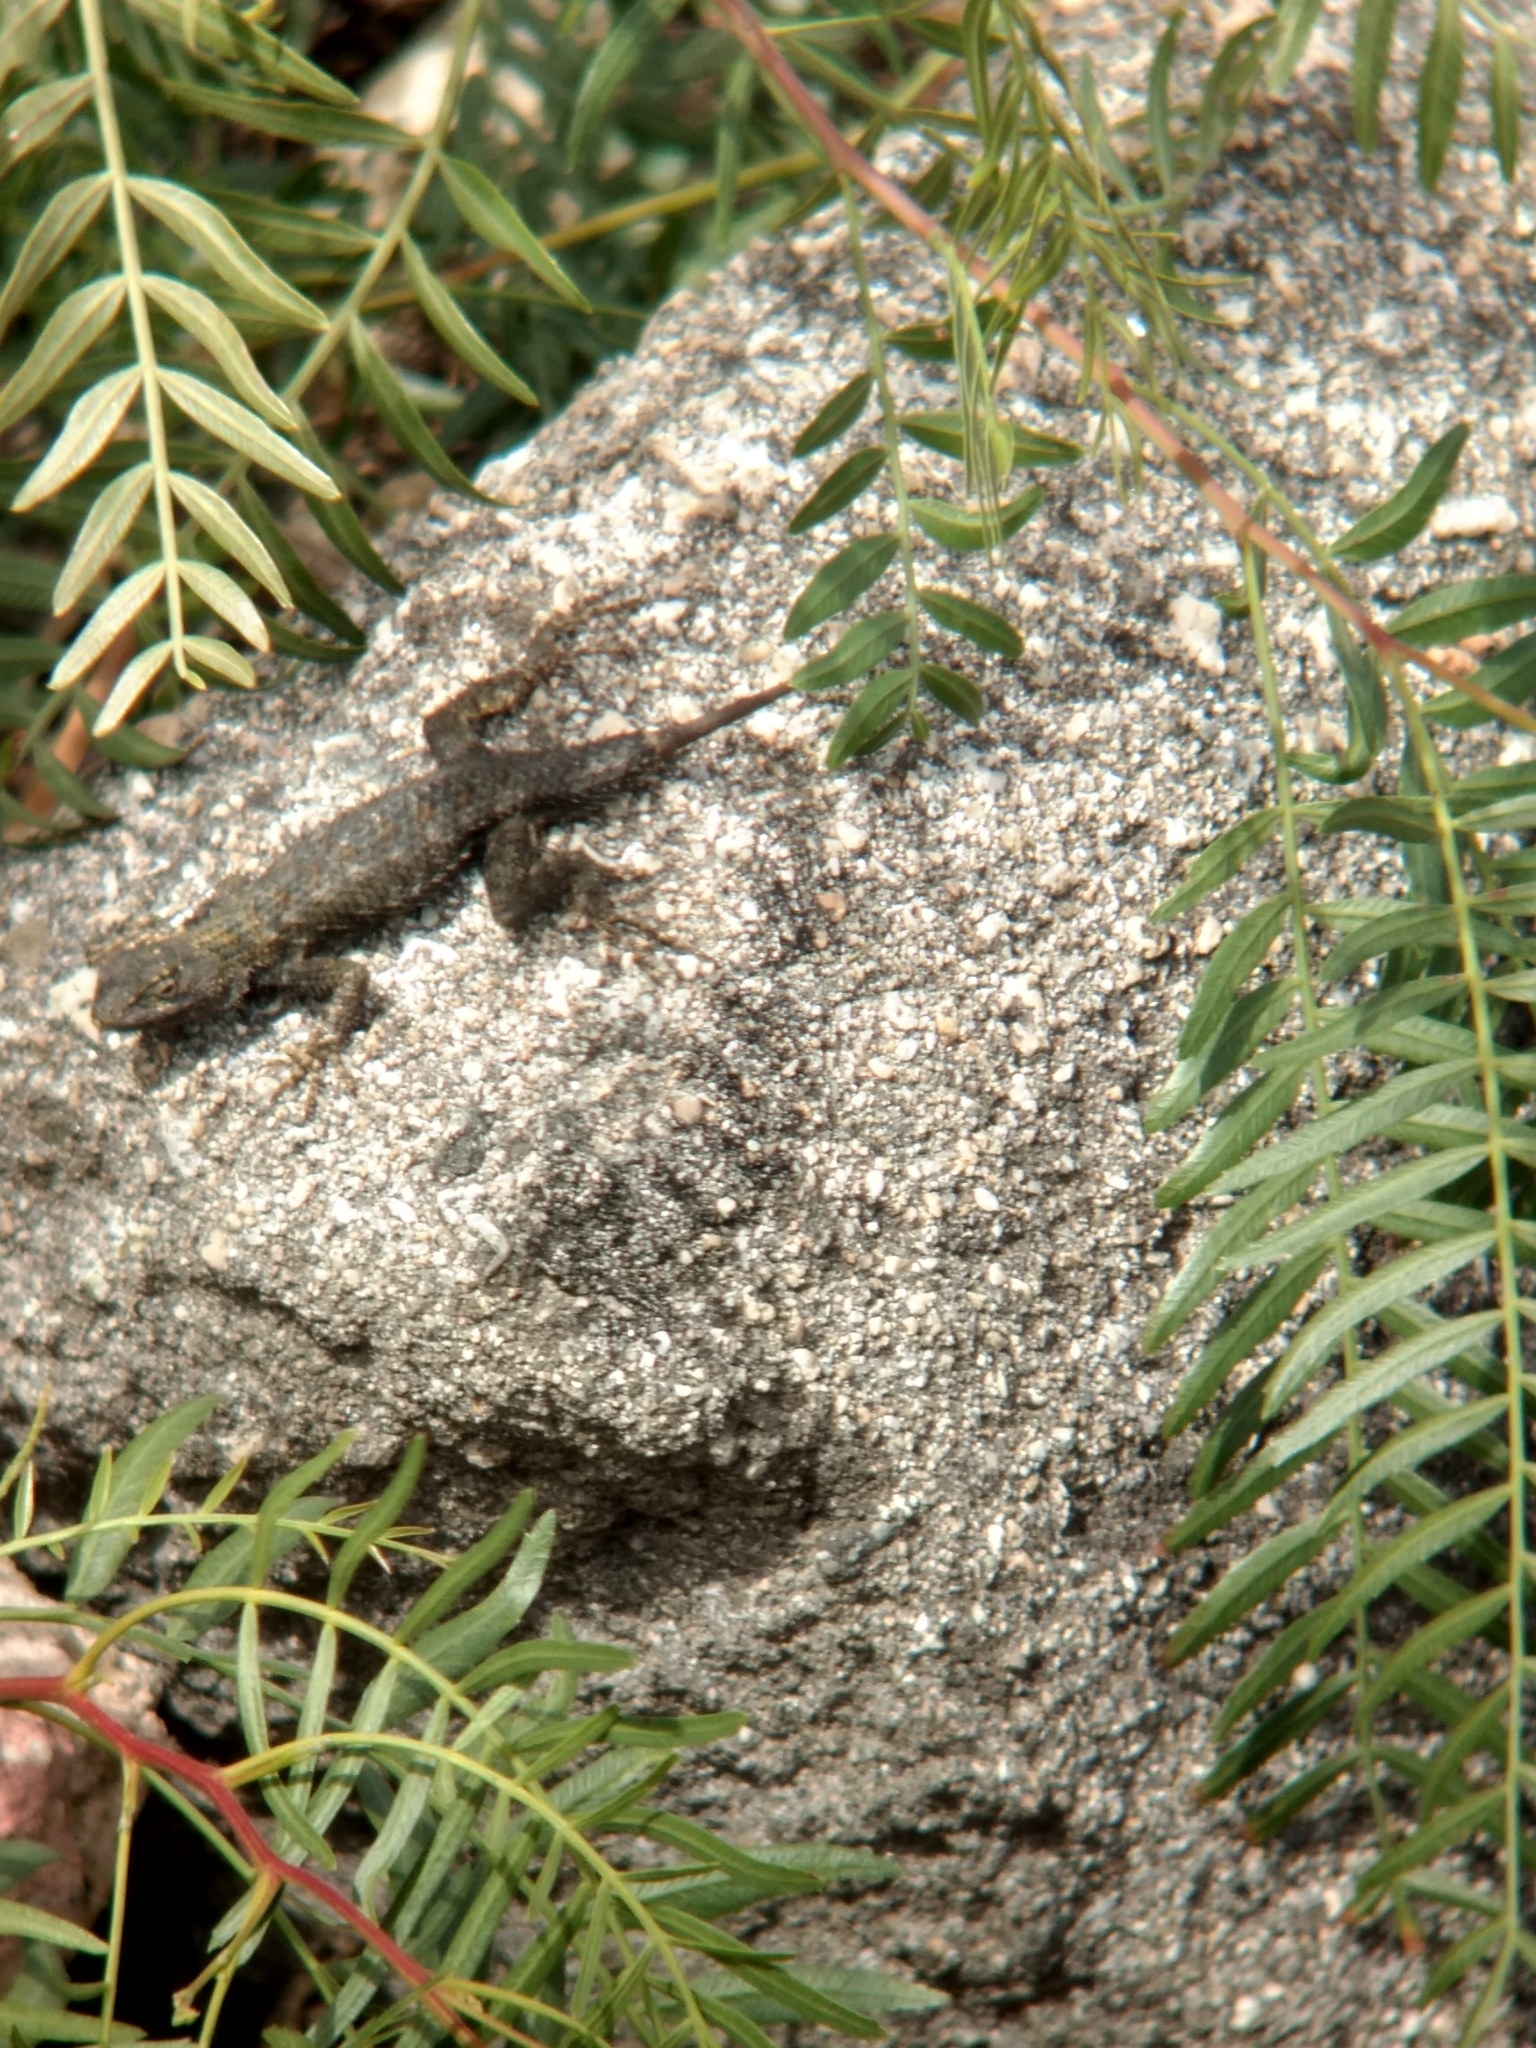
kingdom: Animalia
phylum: Chordata
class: Squamata
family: Phrynosomatidae
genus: Sceloporus
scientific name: Sceloporus occidentalis
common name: Western fence lizard
